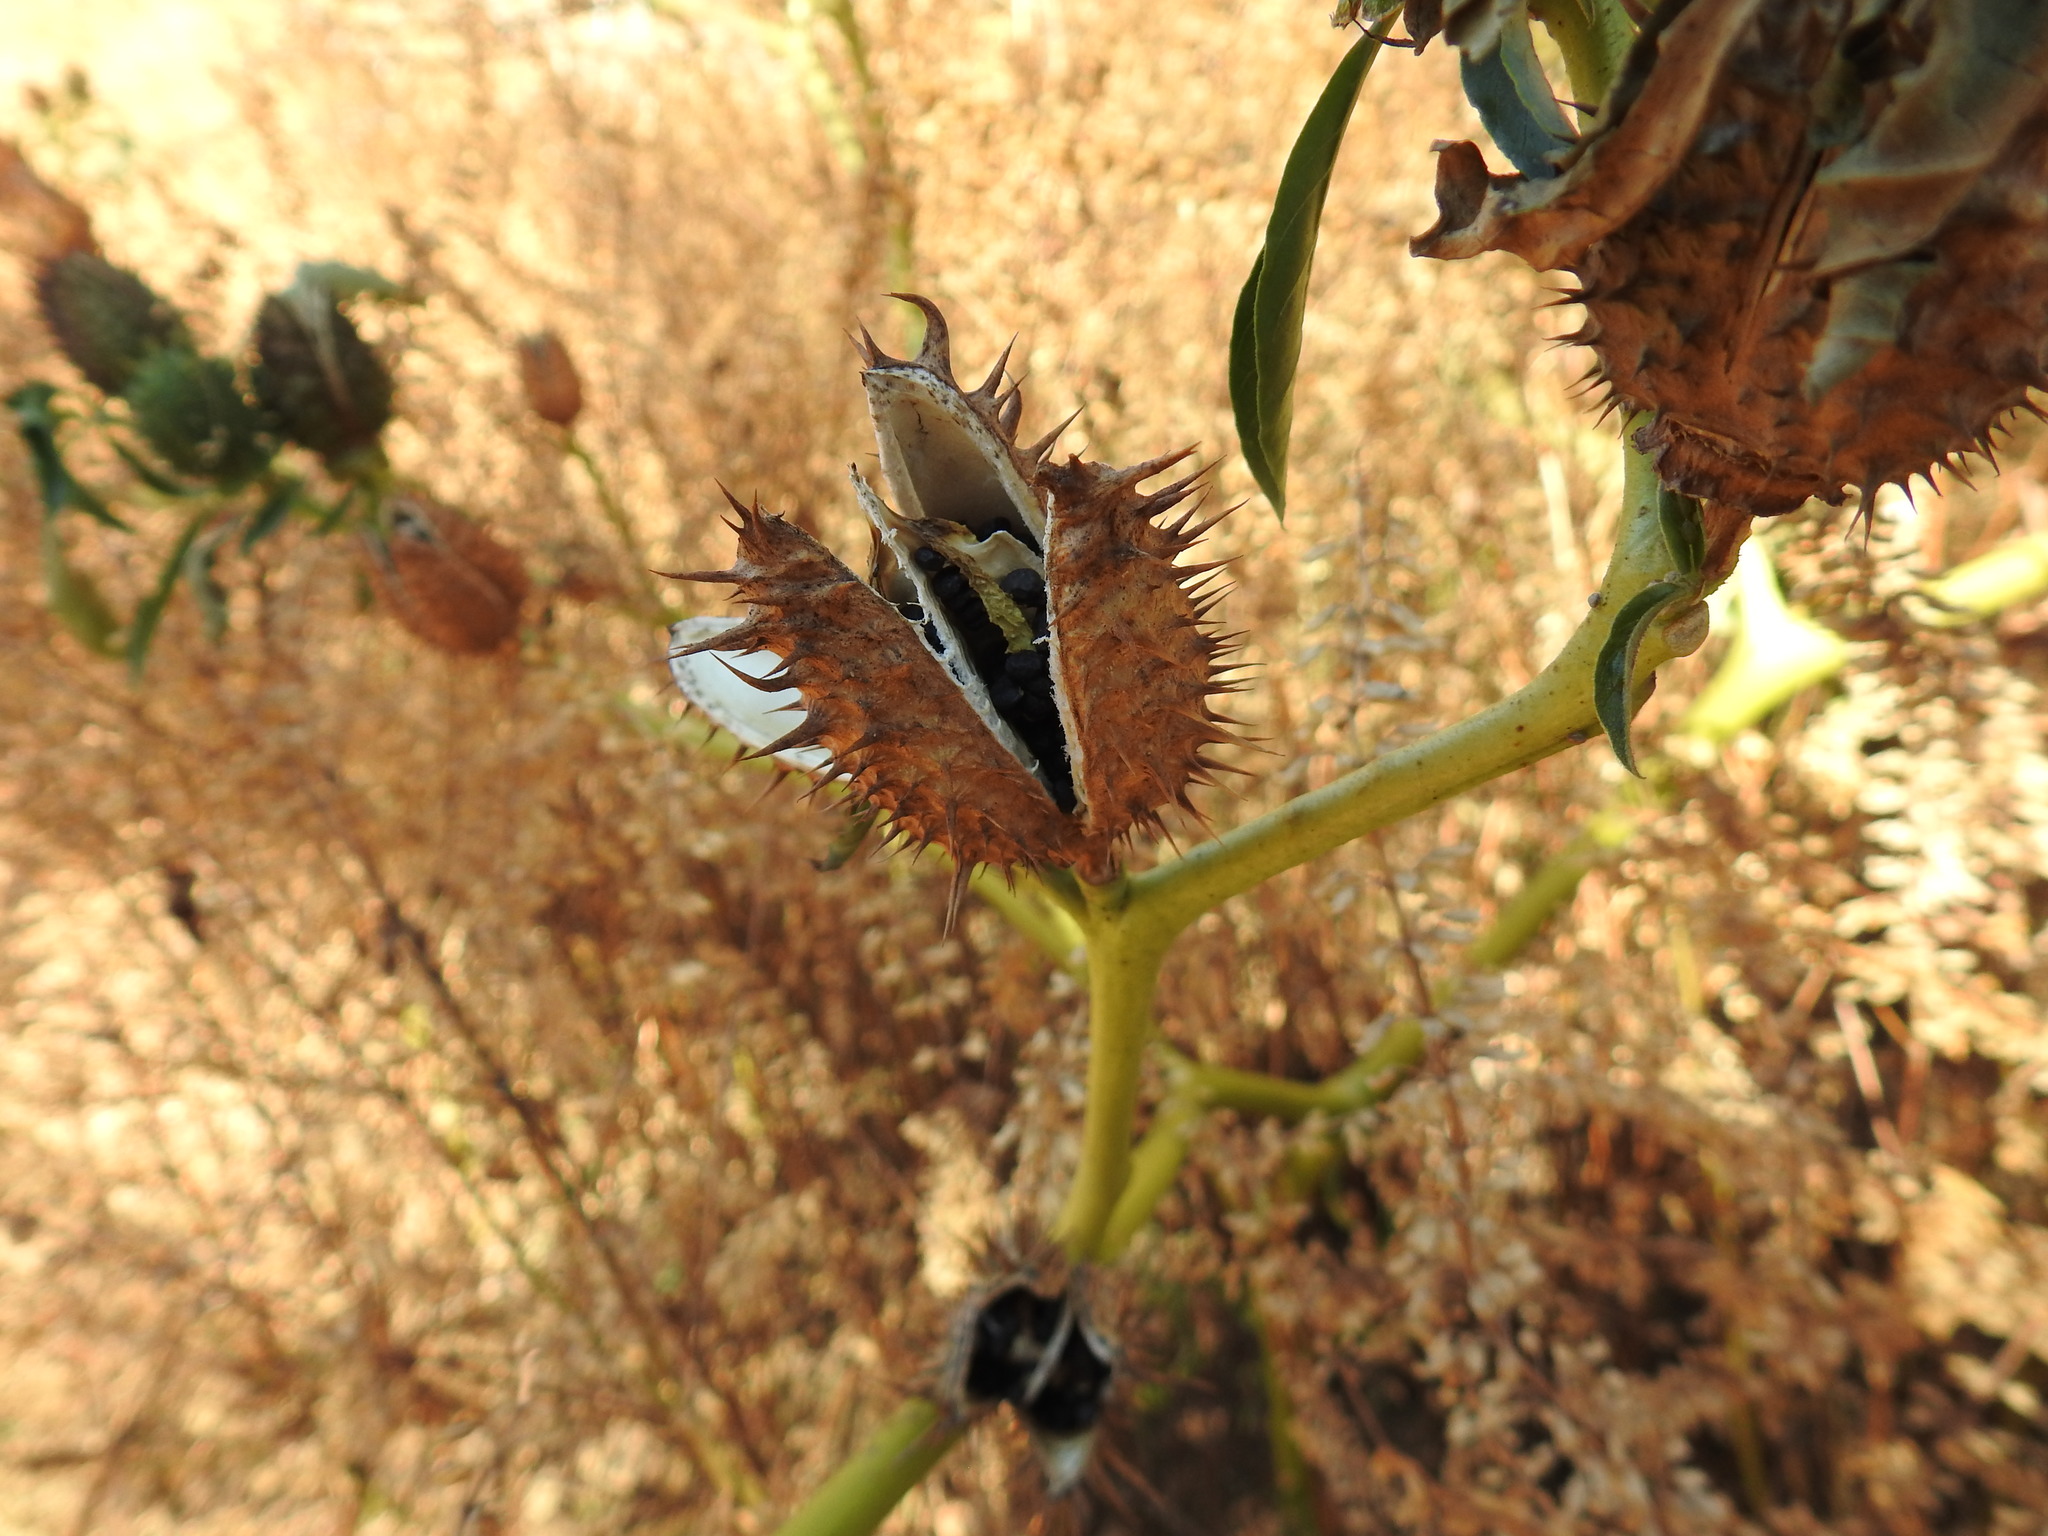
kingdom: Plantae
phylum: Tracheophyta
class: Magnoliopsida
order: Solanales
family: Solanaceae
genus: Datura
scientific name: Datura stramonium
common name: Thorn-apple
